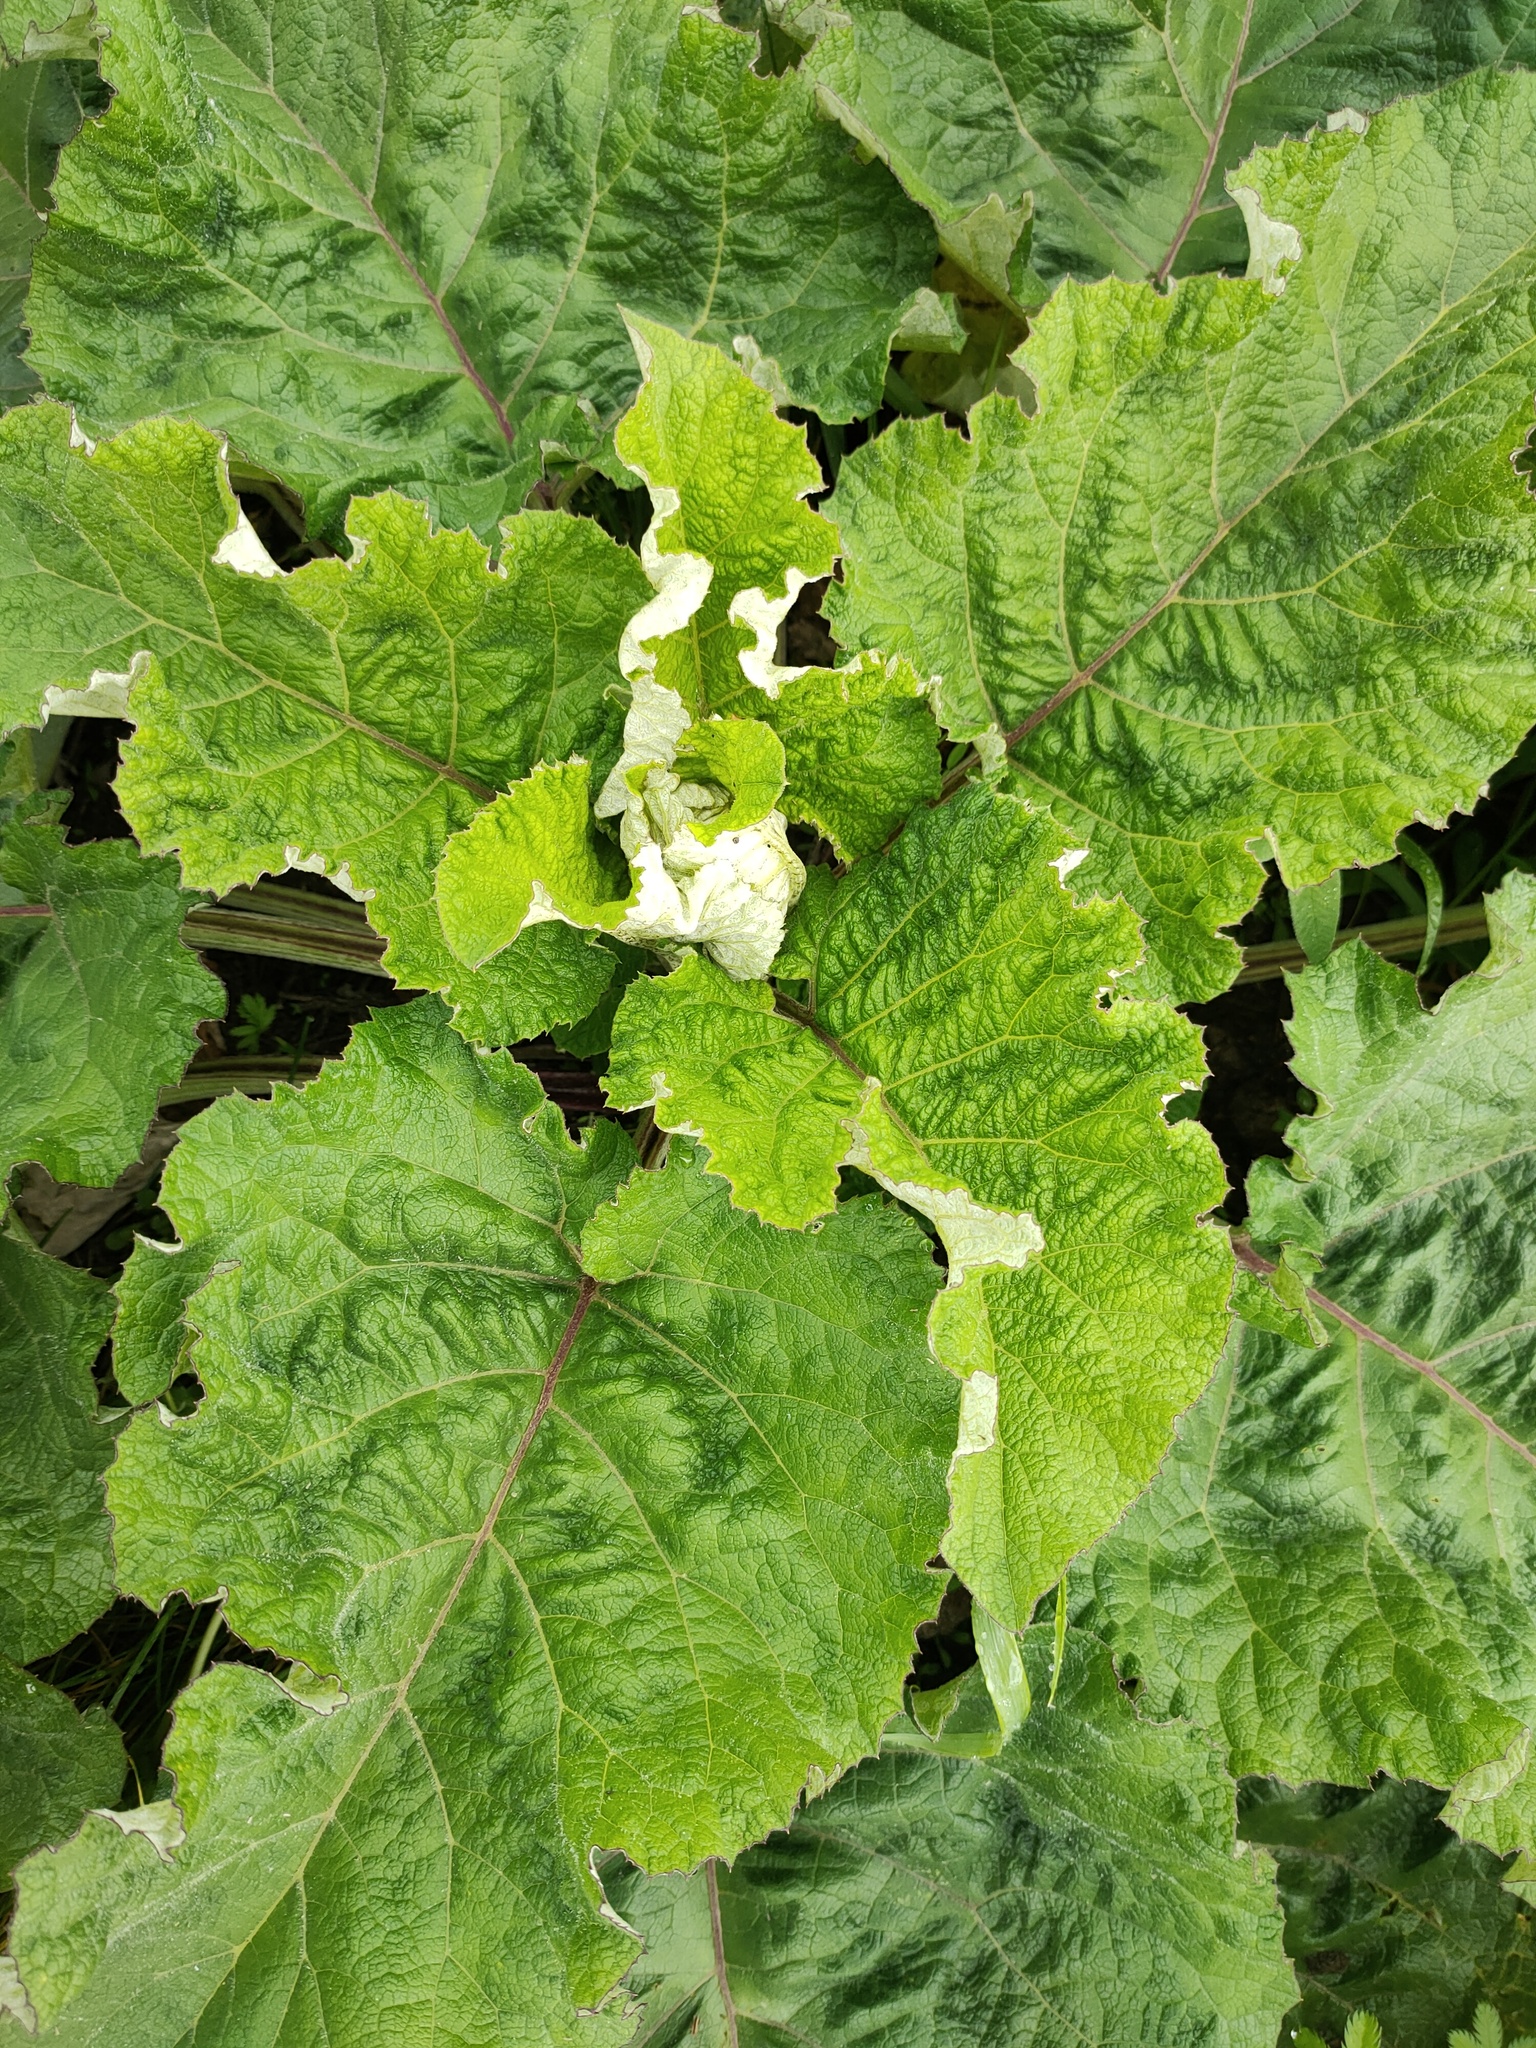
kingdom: Plantae
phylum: Tracheophyta
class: Magnoliopsida
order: Asterales
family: Asteraceae
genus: Arctium
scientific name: Arctium
